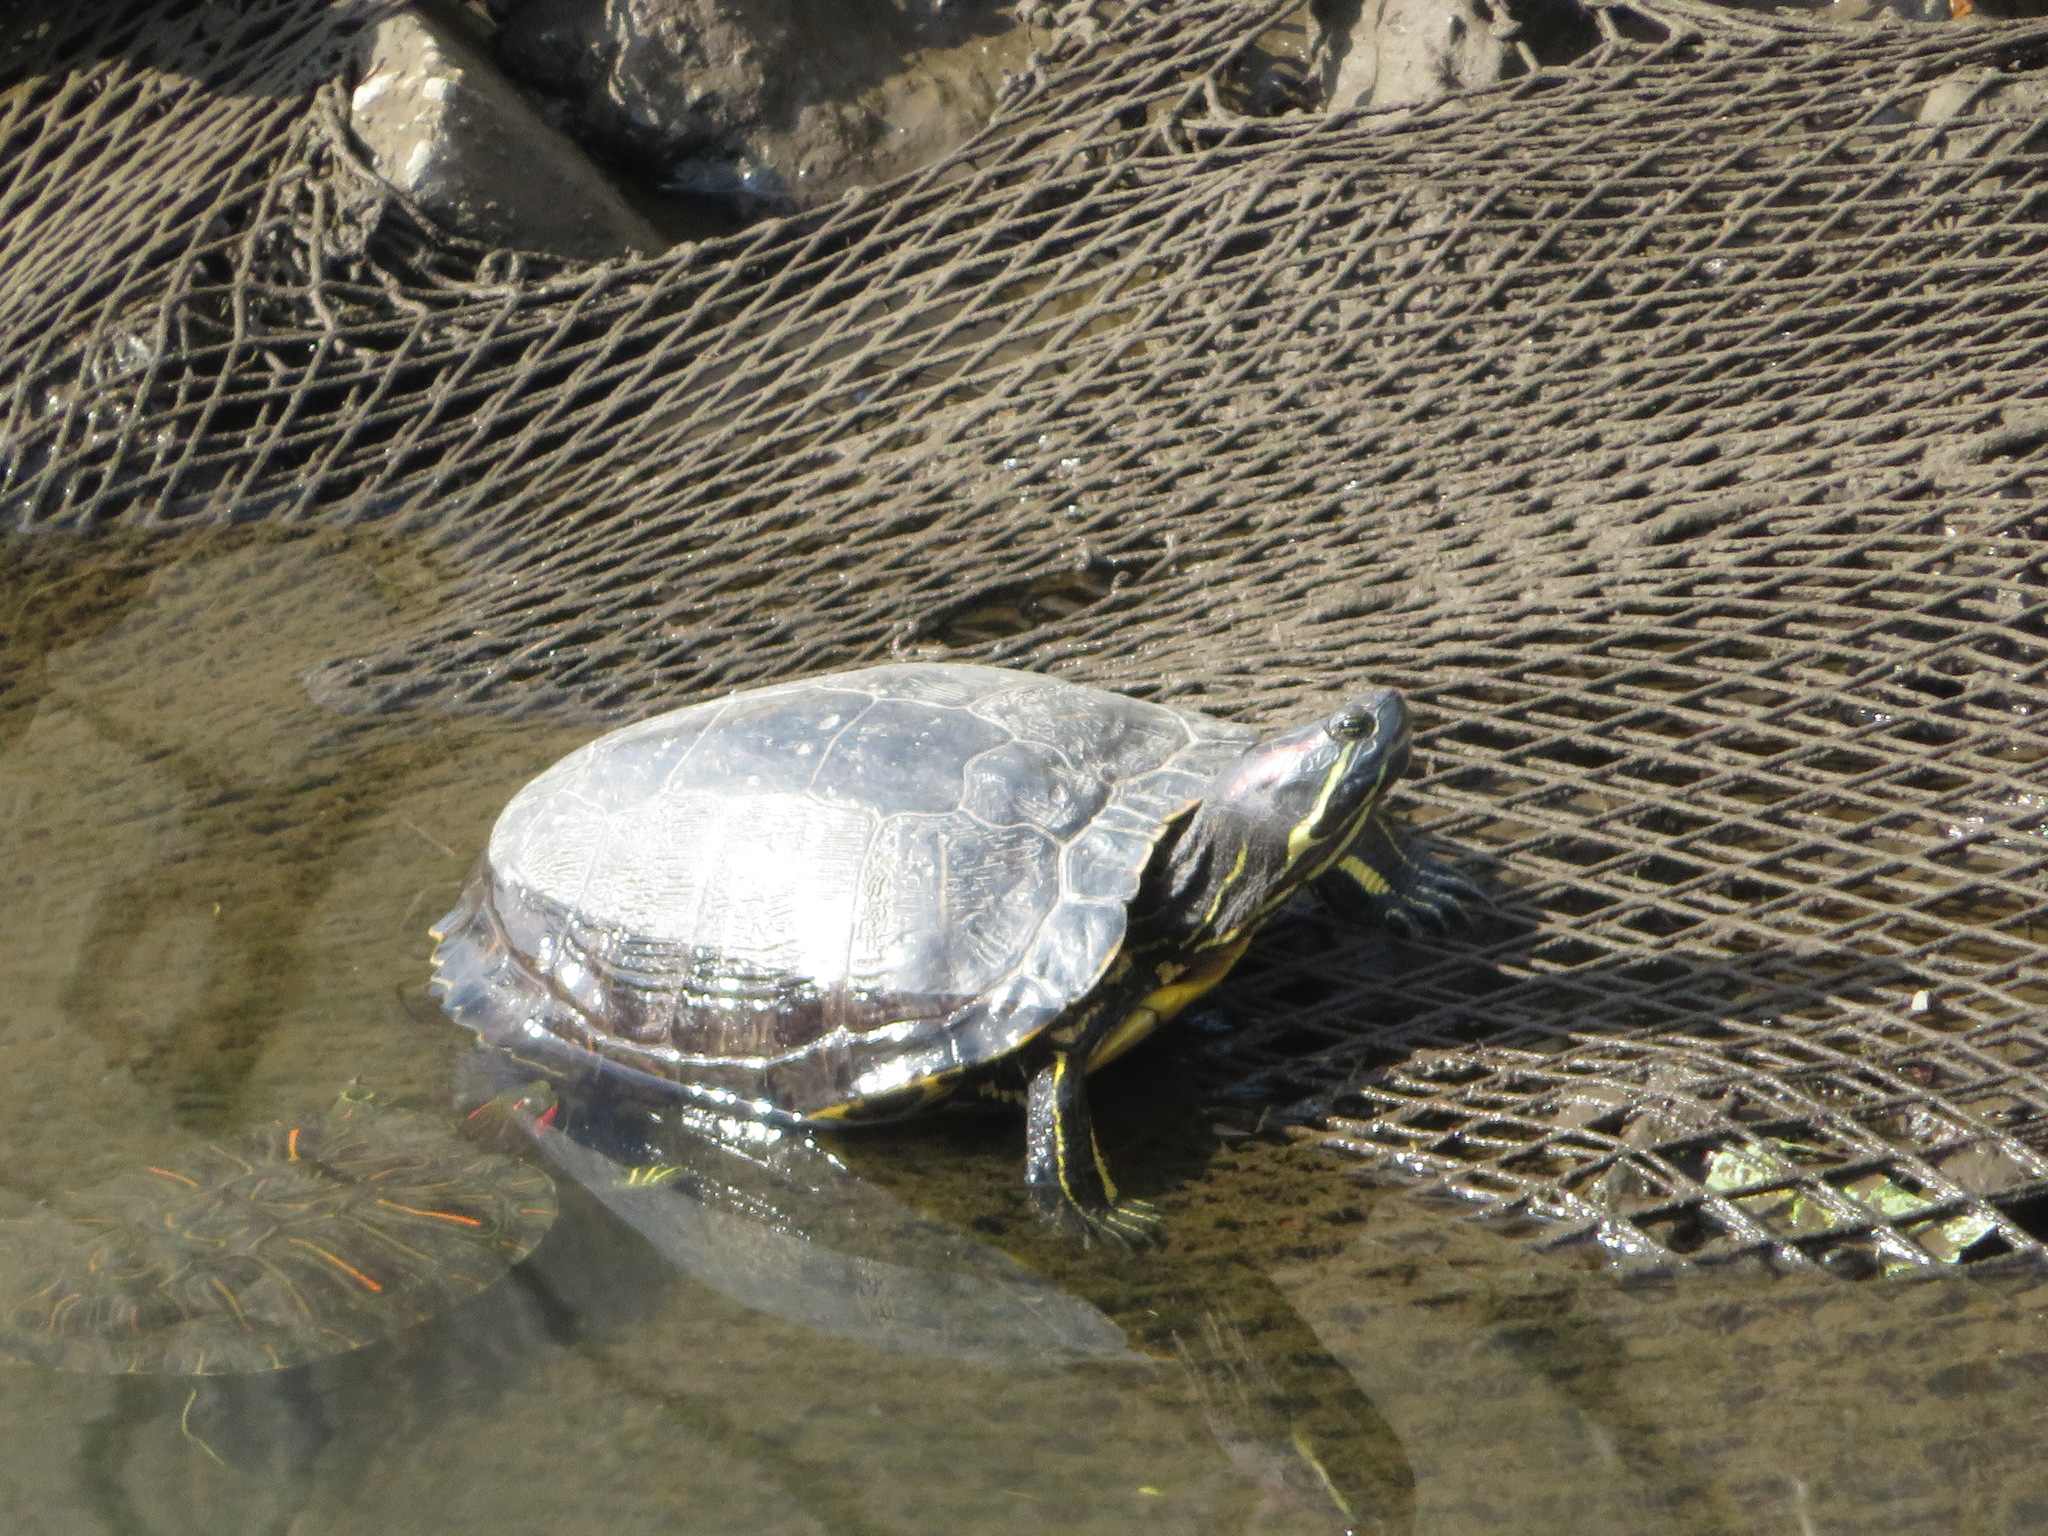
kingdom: Animalia
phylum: Chordata
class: Testudines
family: Emydidae
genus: Trachemys
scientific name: Trachemys scripta
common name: Slider
